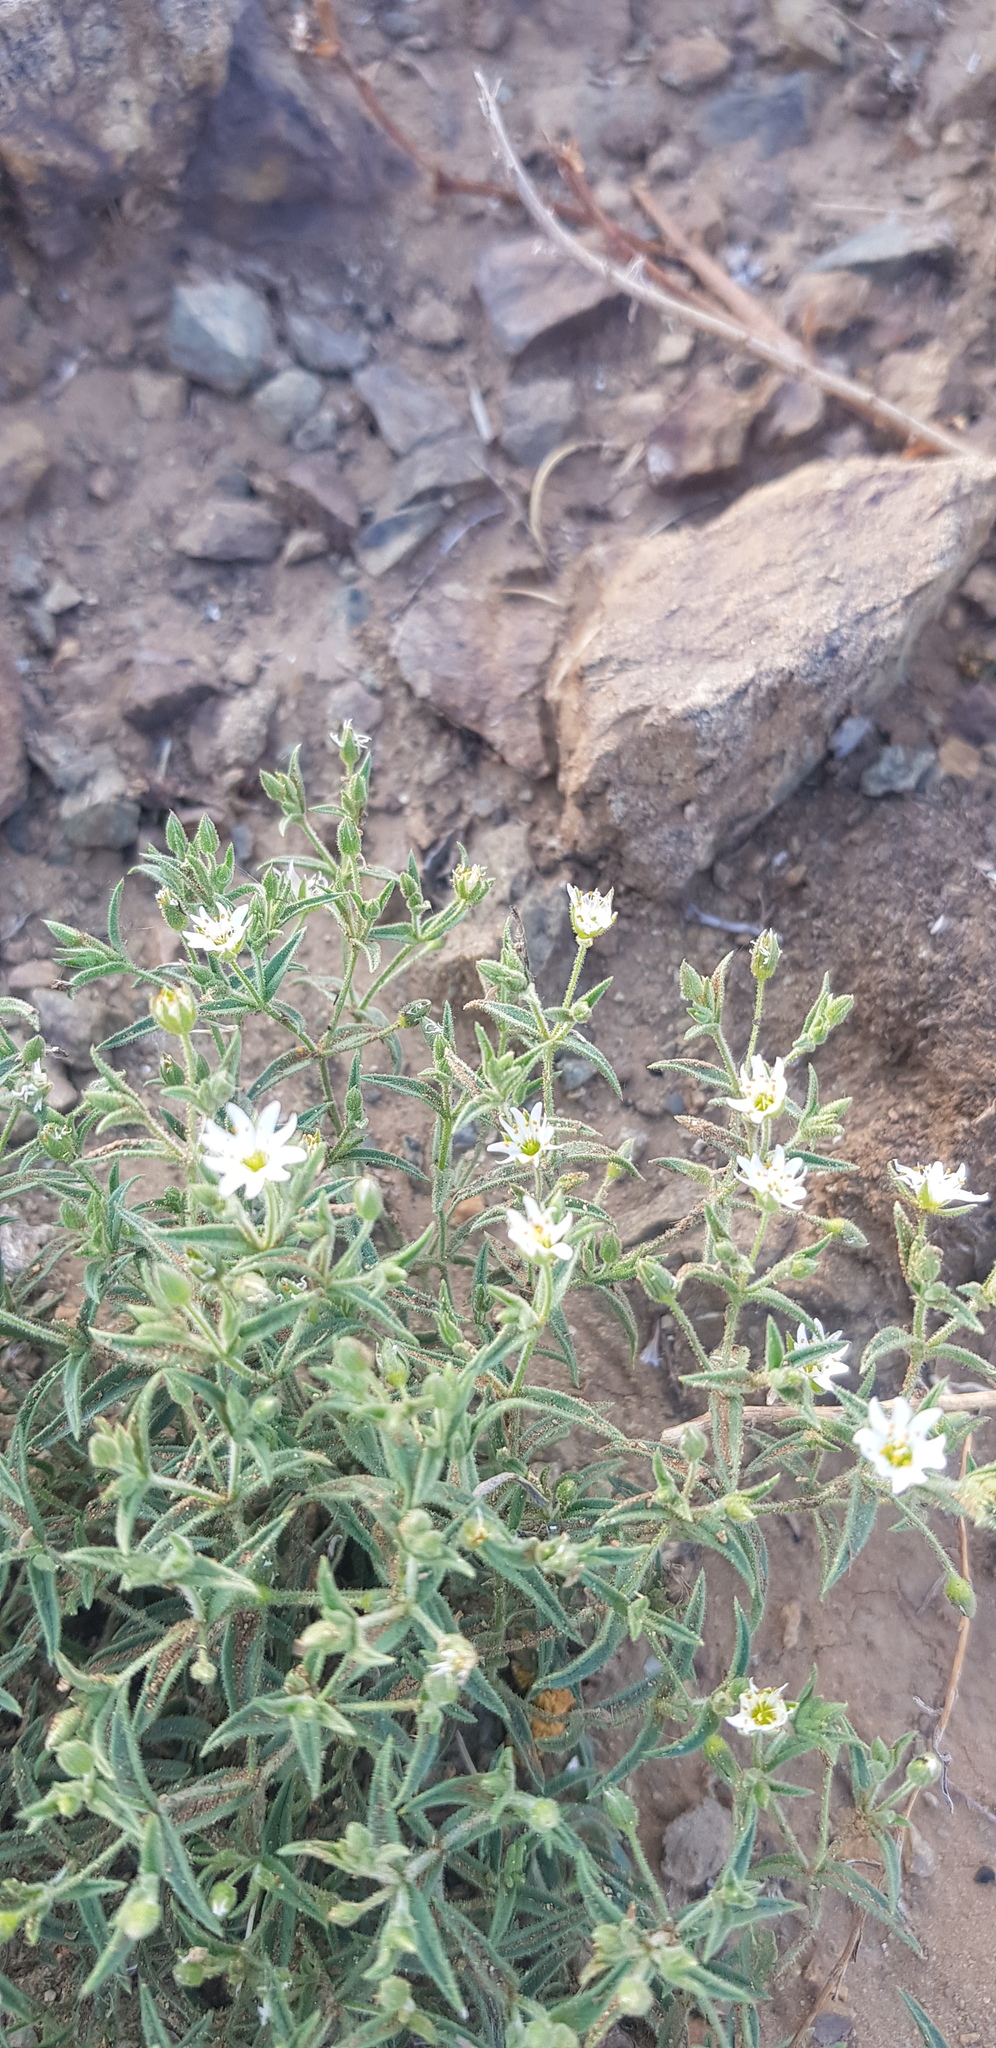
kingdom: Plantae
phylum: Tracheophyta
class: Magnoliopsida
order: Caryophyllales
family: Caryophyllaceae
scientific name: Caryophyllaceae
